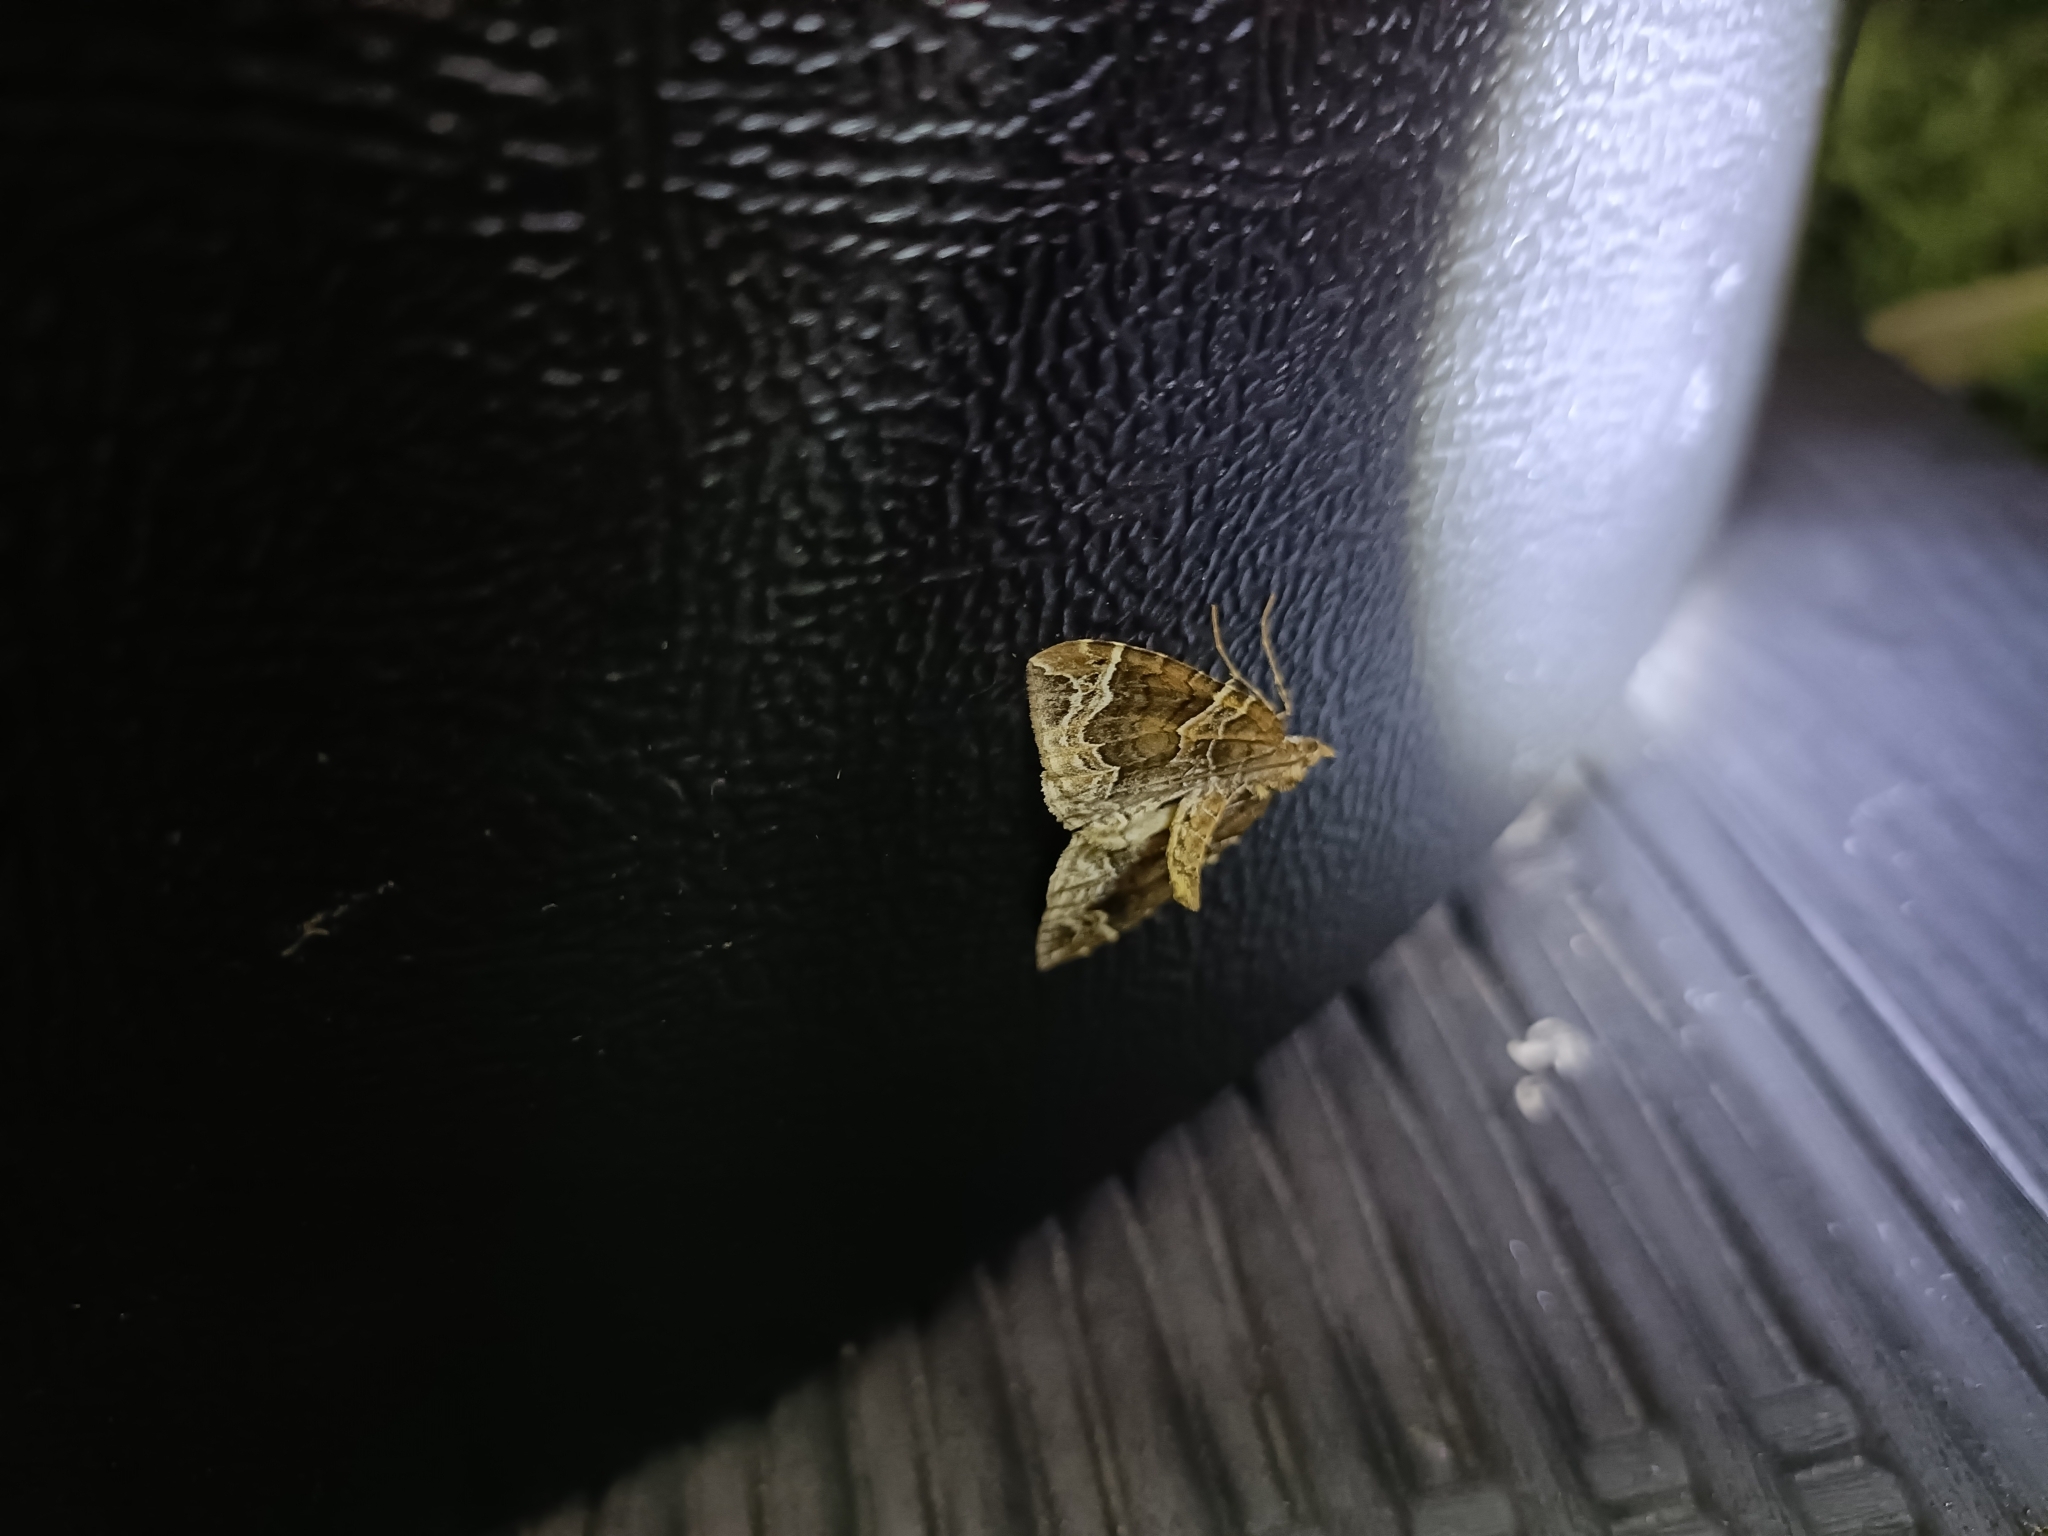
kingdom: Animalia
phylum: Arthropoda
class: Insecta
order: Lepidoptera
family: Geometridae
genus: Eulithis
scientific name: Eulithis prunata
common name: Phoenix
